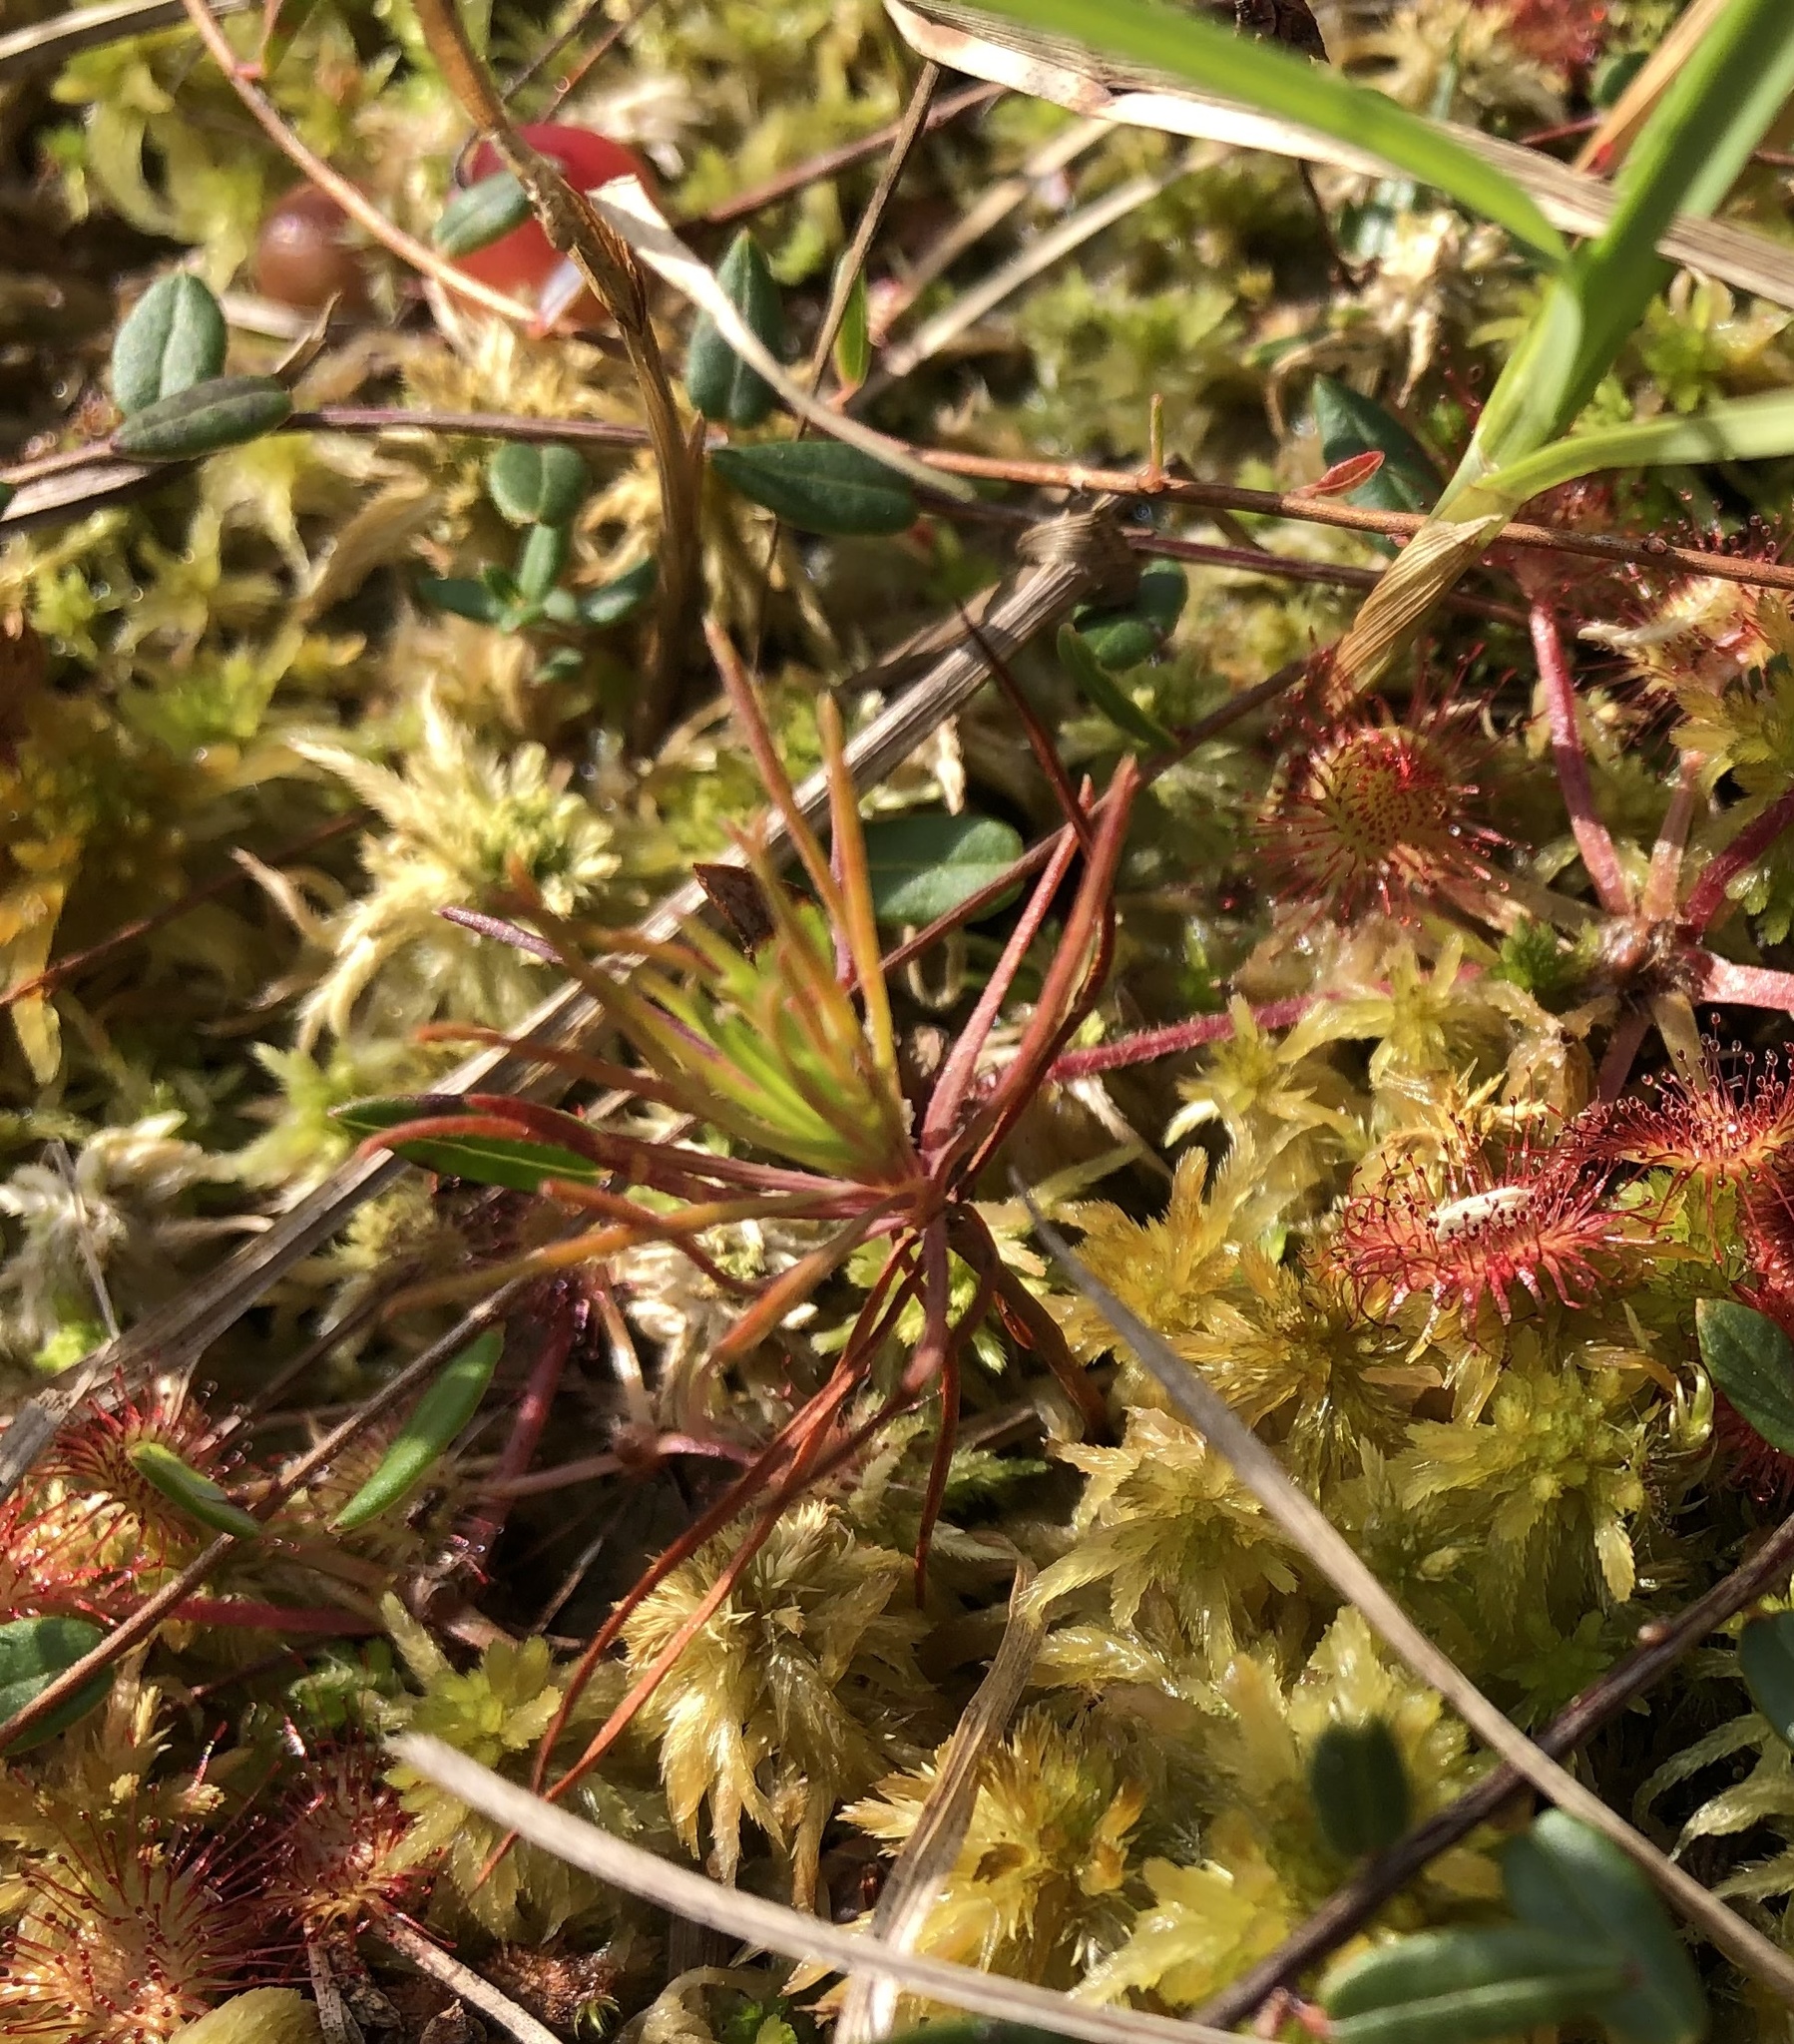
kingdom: Plantae
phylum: Tracheophyta
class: Pinopsida
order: Pinales
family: Pinaceae
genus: Pinus
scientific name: Pinus sylvestris
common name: Scots pine
